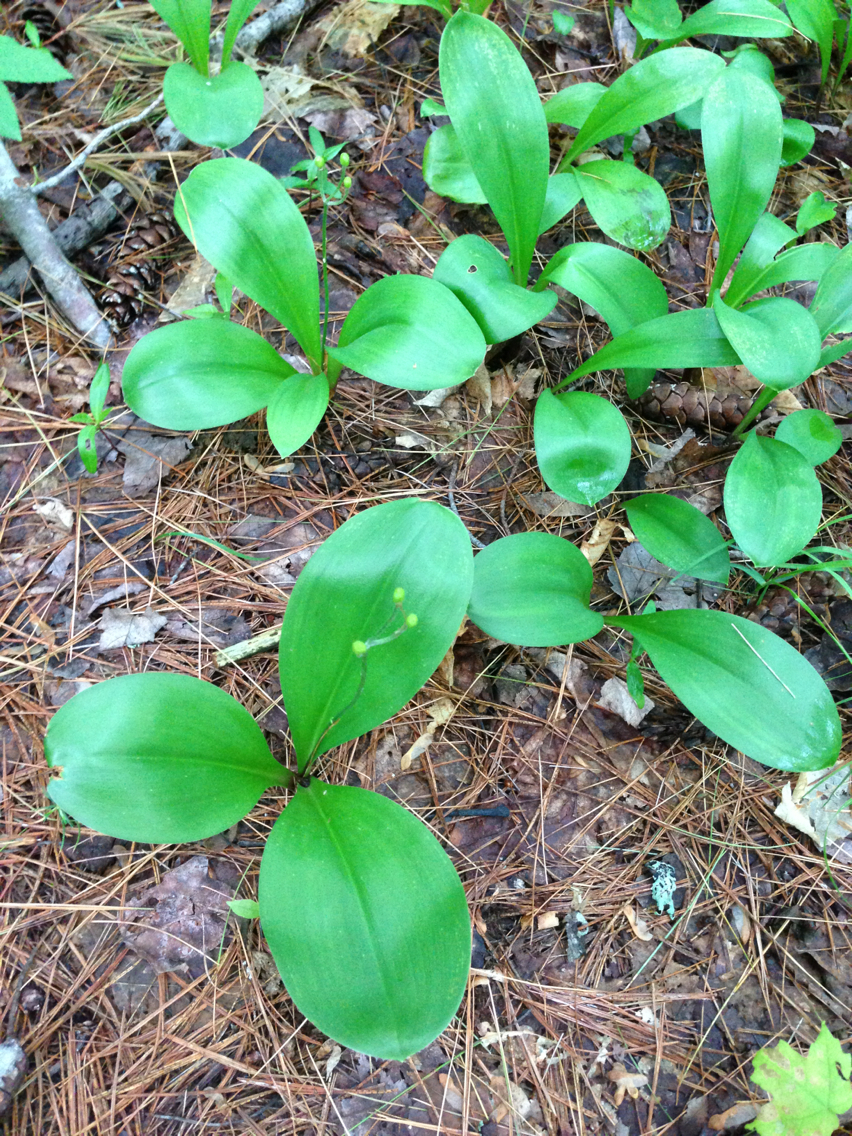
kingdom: Plantae
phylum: Tracheophyta
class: Liliopsida
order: Liliales
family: Liliaceae
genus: Clintonia
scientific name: Clintonia borealis
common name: Yellow clintonia
